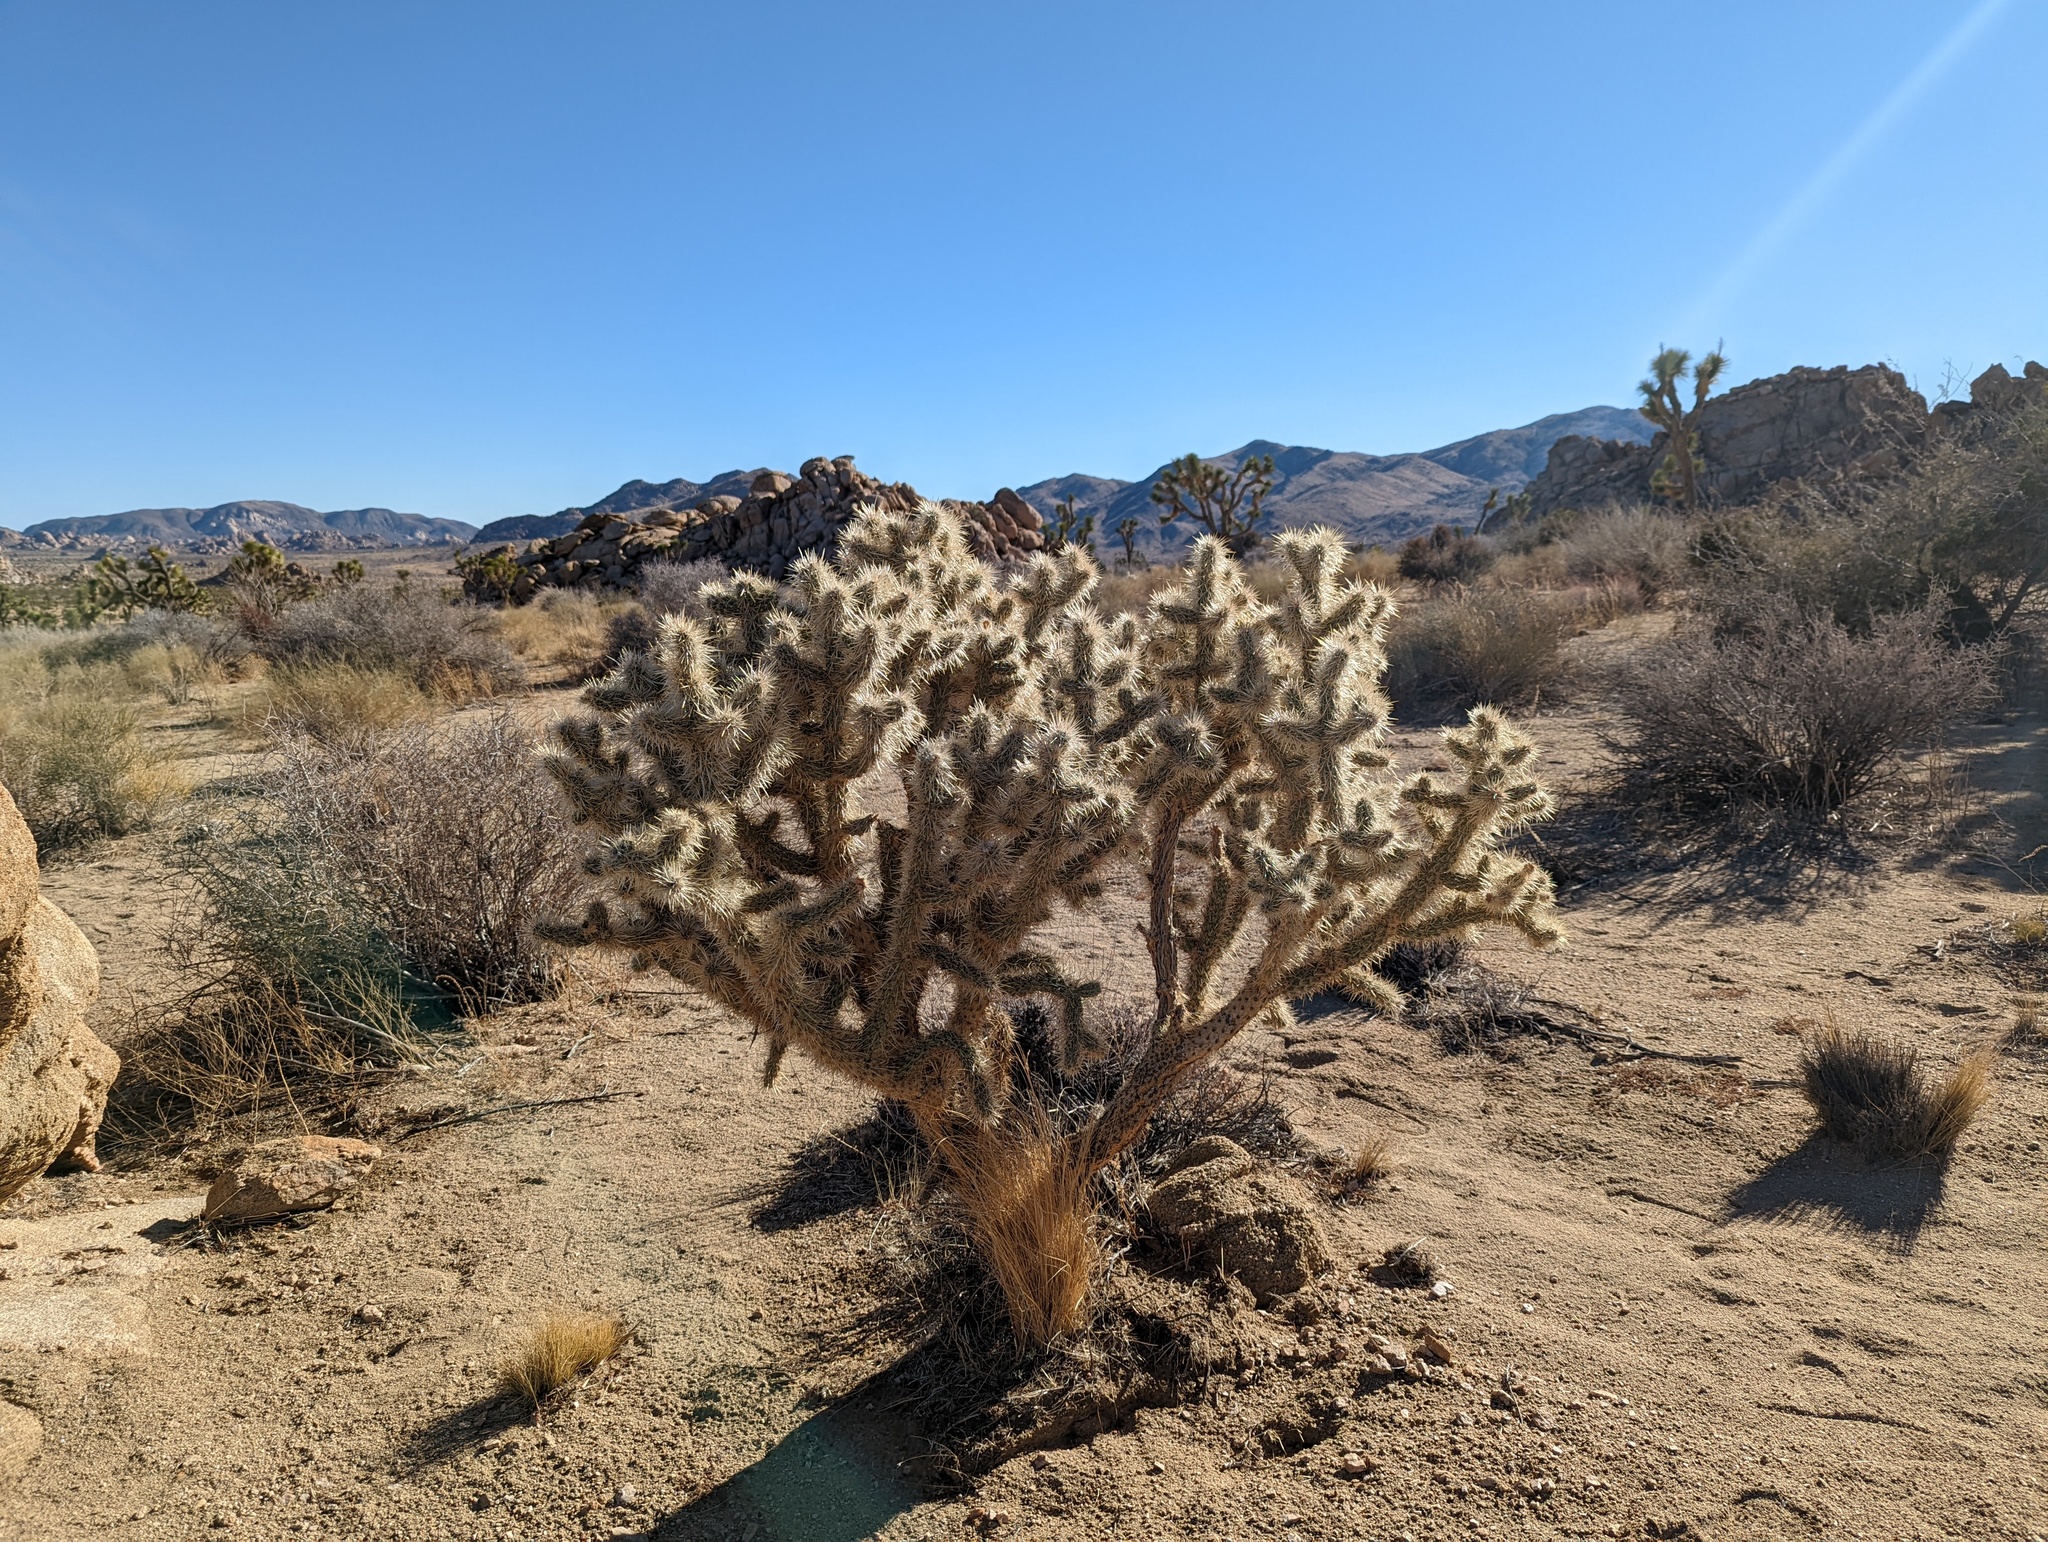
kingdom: Plantae
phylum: Tracheophyta
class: Magnoliopsida
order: Caryophyllales
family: Cactaceae
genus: Cylindropuntia
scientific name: Cylindropuntia echinocarpa
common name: Ground cholla
